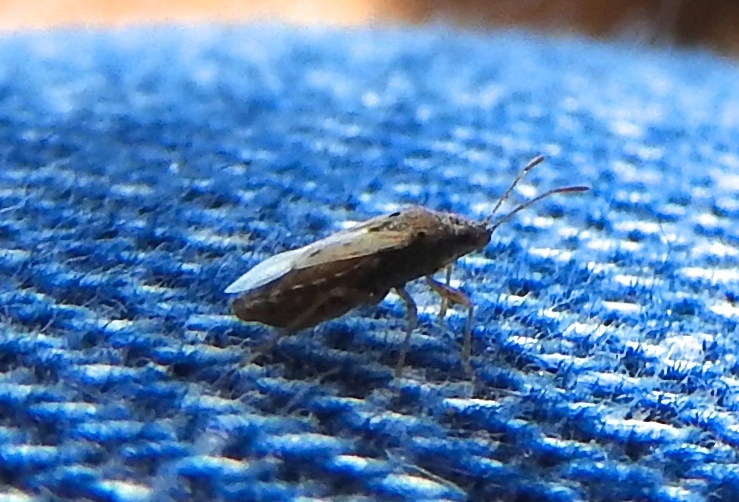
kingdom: Animalia
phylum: Arthropoda
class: Insecta
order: Hemiptera
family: Lygaeidae
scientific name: Lygaeidae
